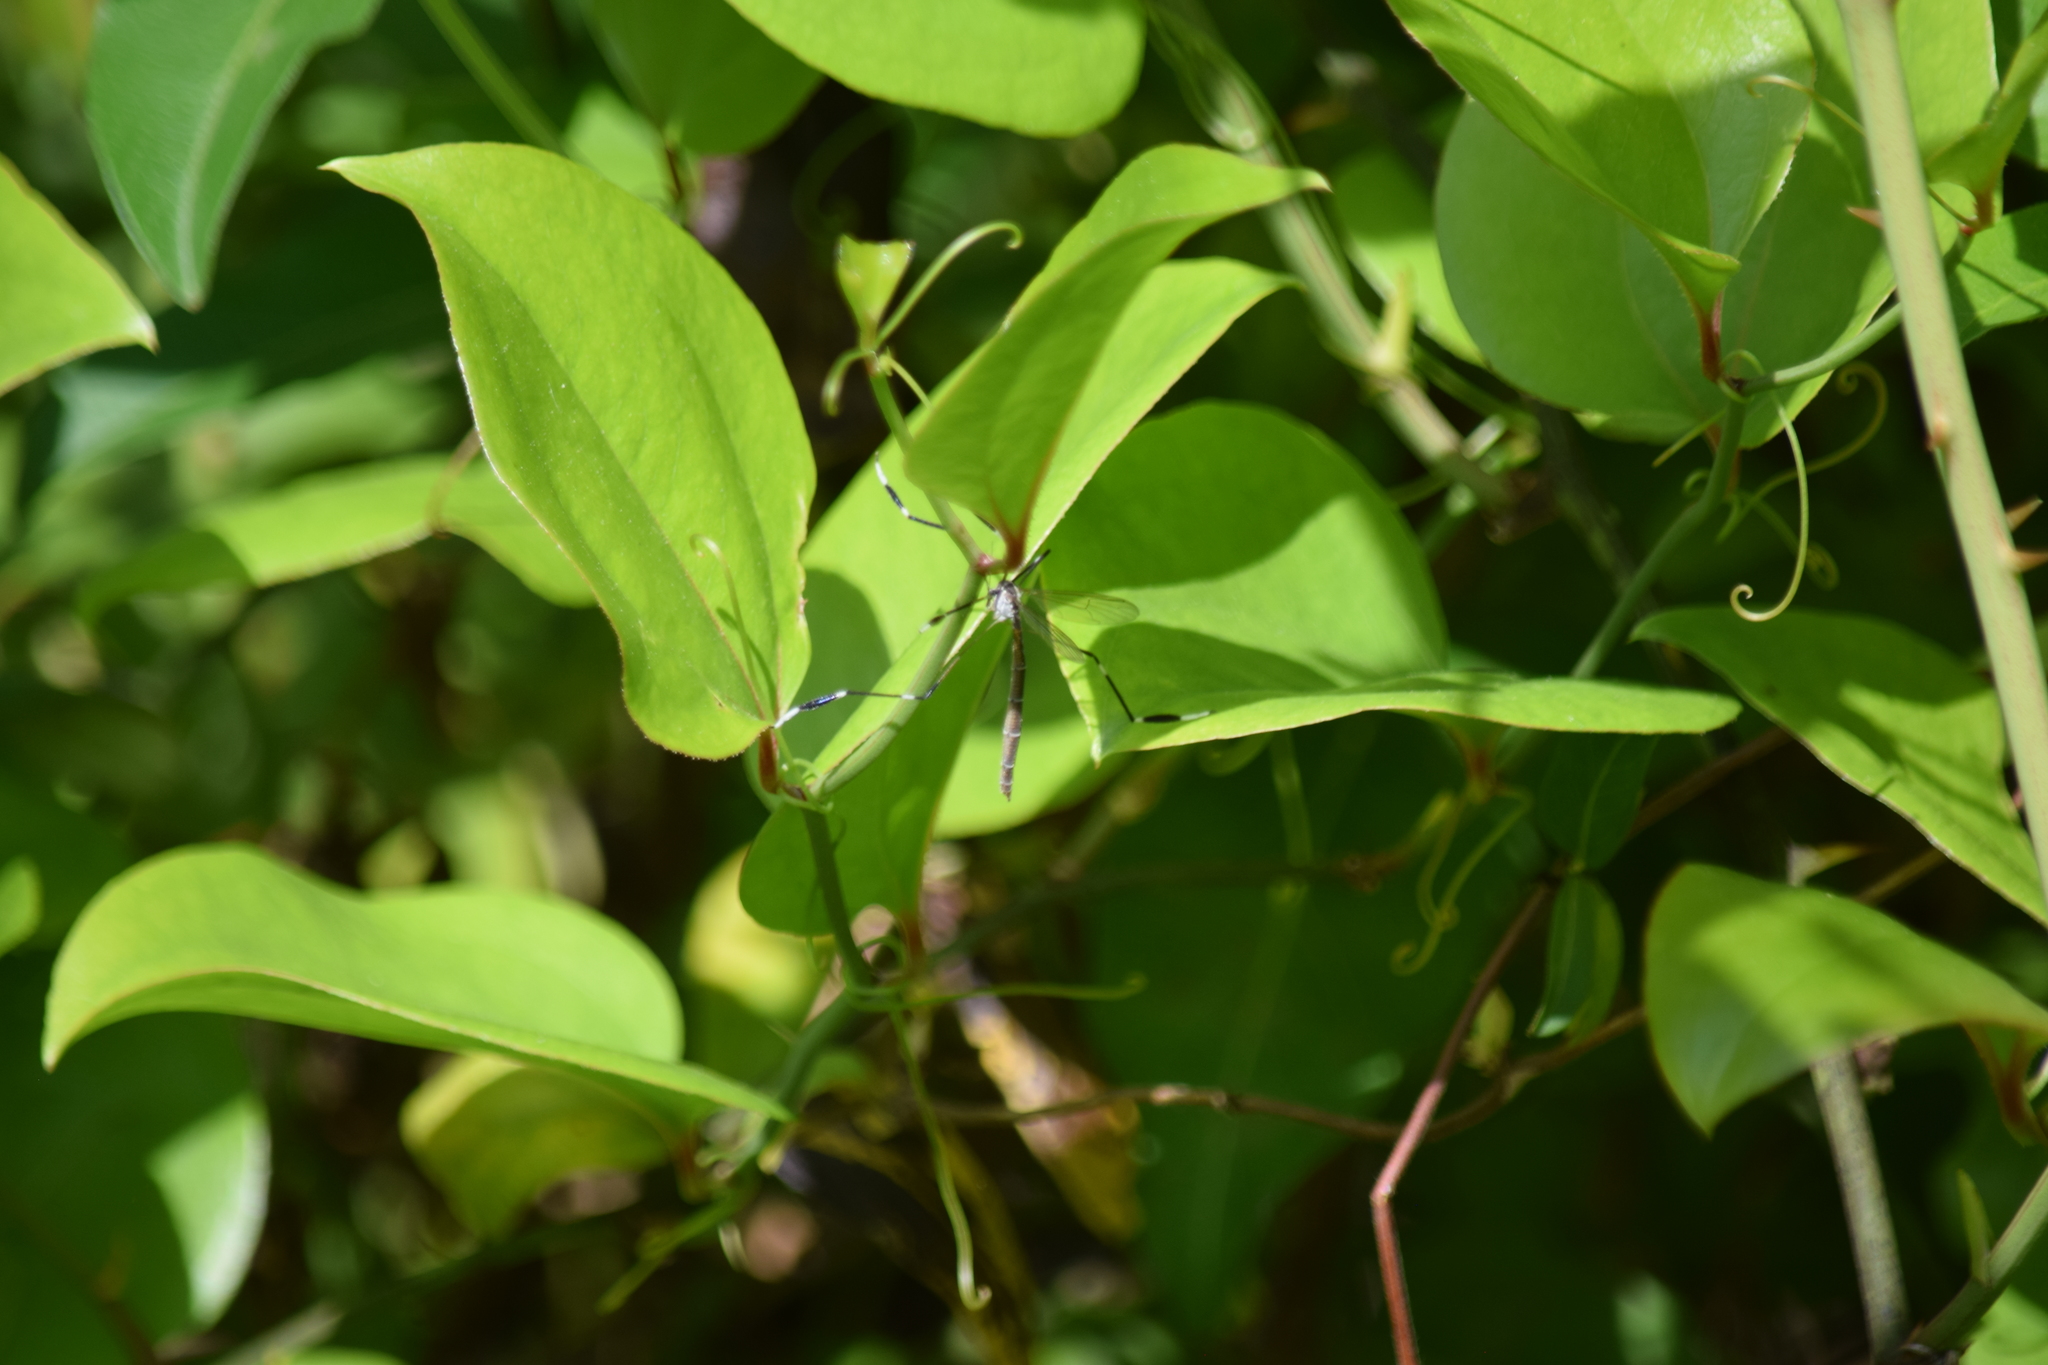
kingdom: Animalia
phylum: Arthropoda
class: Insecta
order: Diptera
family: Ptychopteridae
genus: Bittacomorpha
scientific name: Bittacomorpha clavipes
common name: Eastern phantom crane fly
